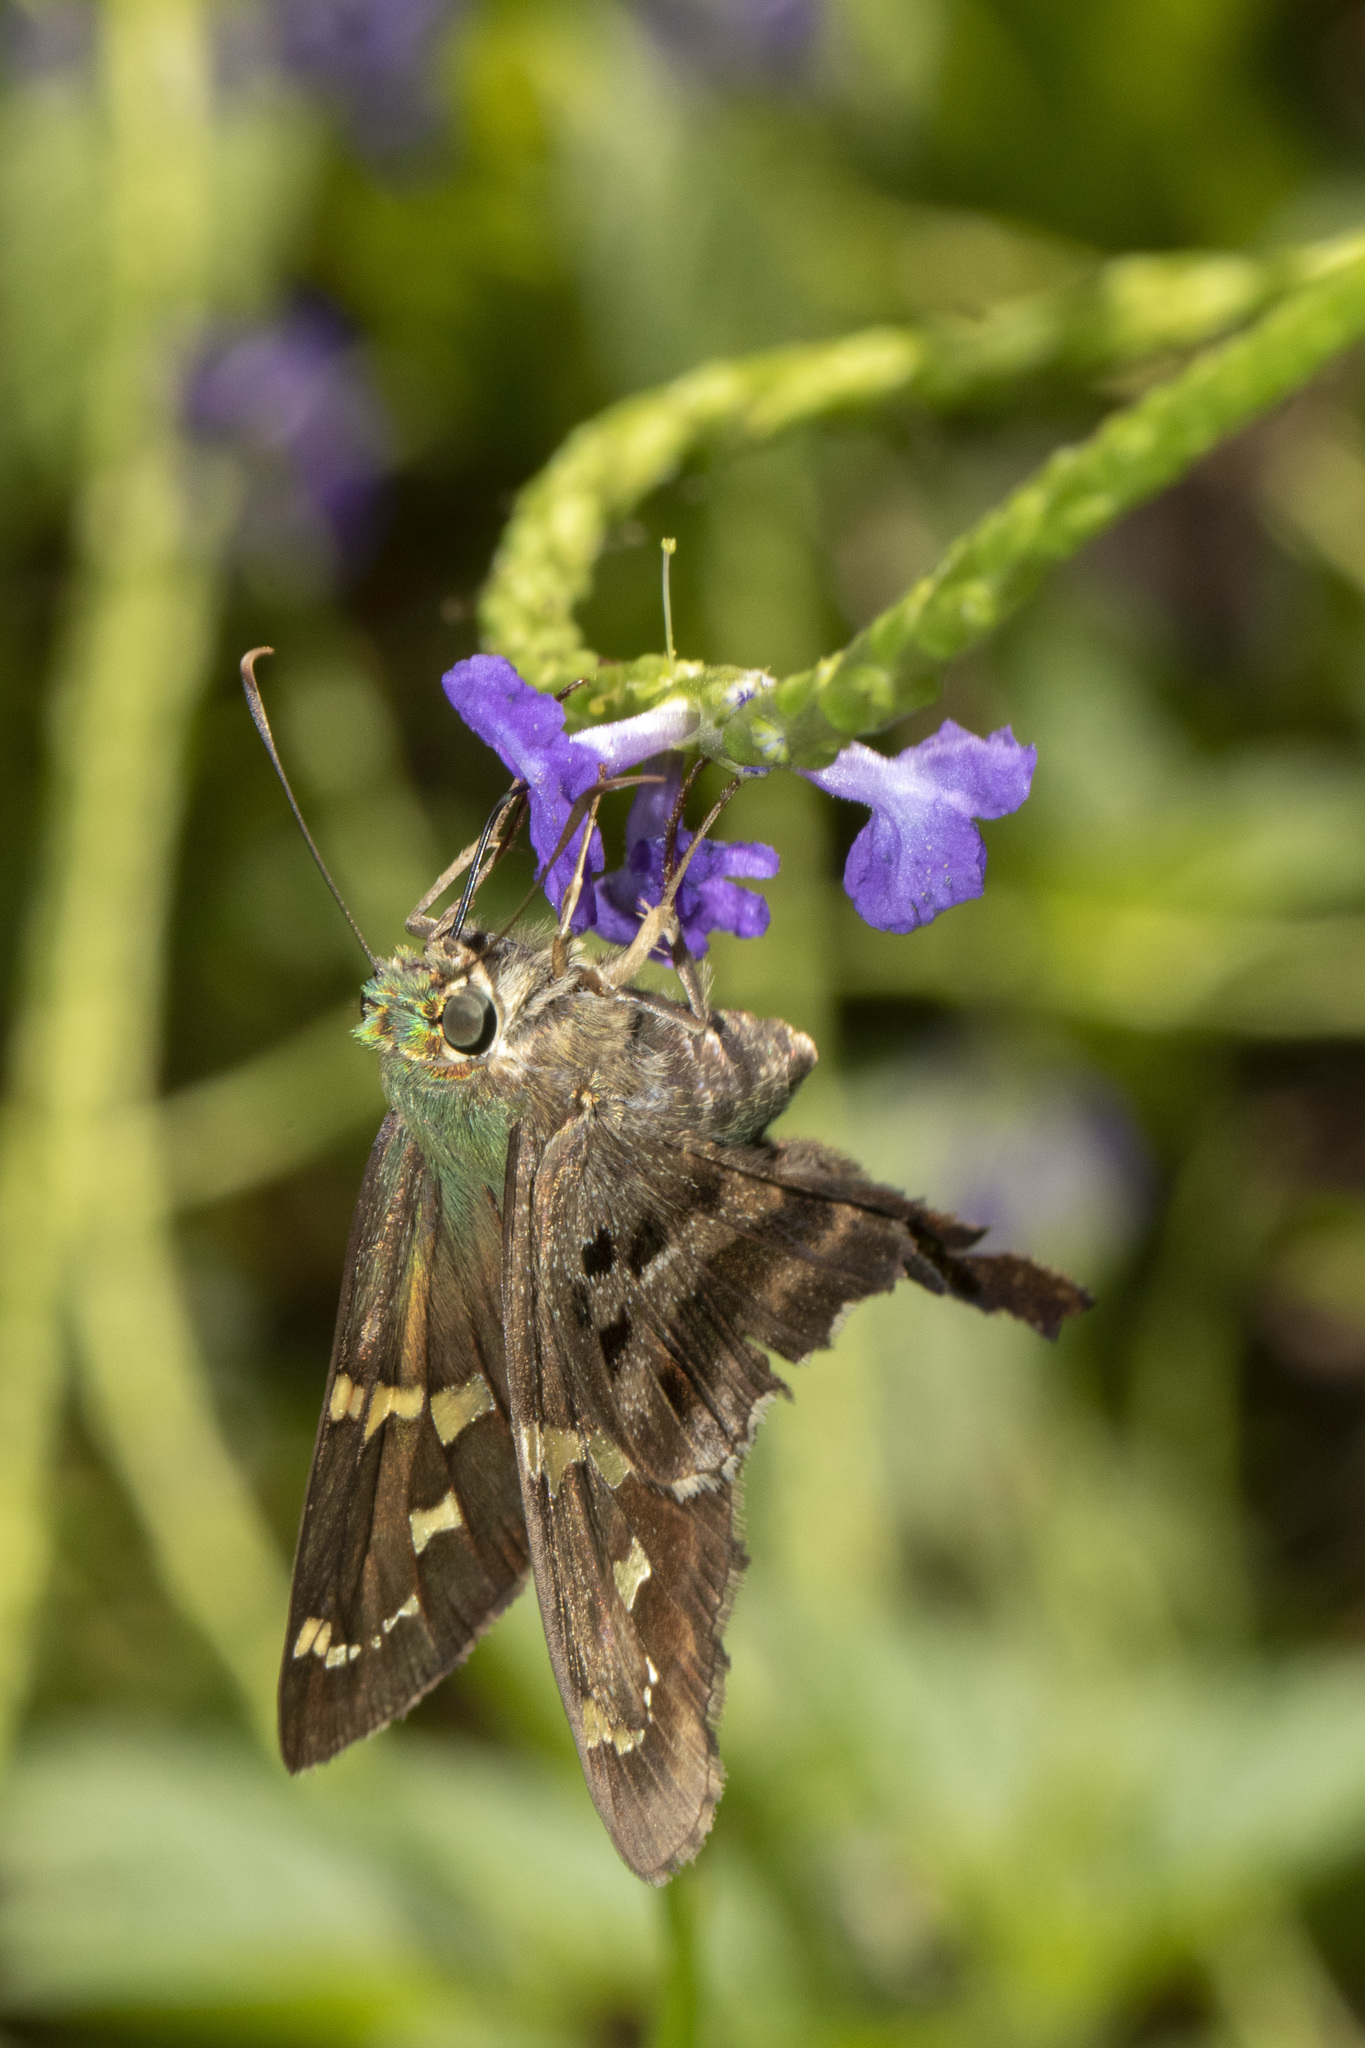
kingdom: Animalia
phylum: Arthropoda
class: Insecta
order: Lepidoptera
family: Hesperiidae
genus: Urbanus
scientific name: Urbanus proteus
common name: Long-tailed skipper
